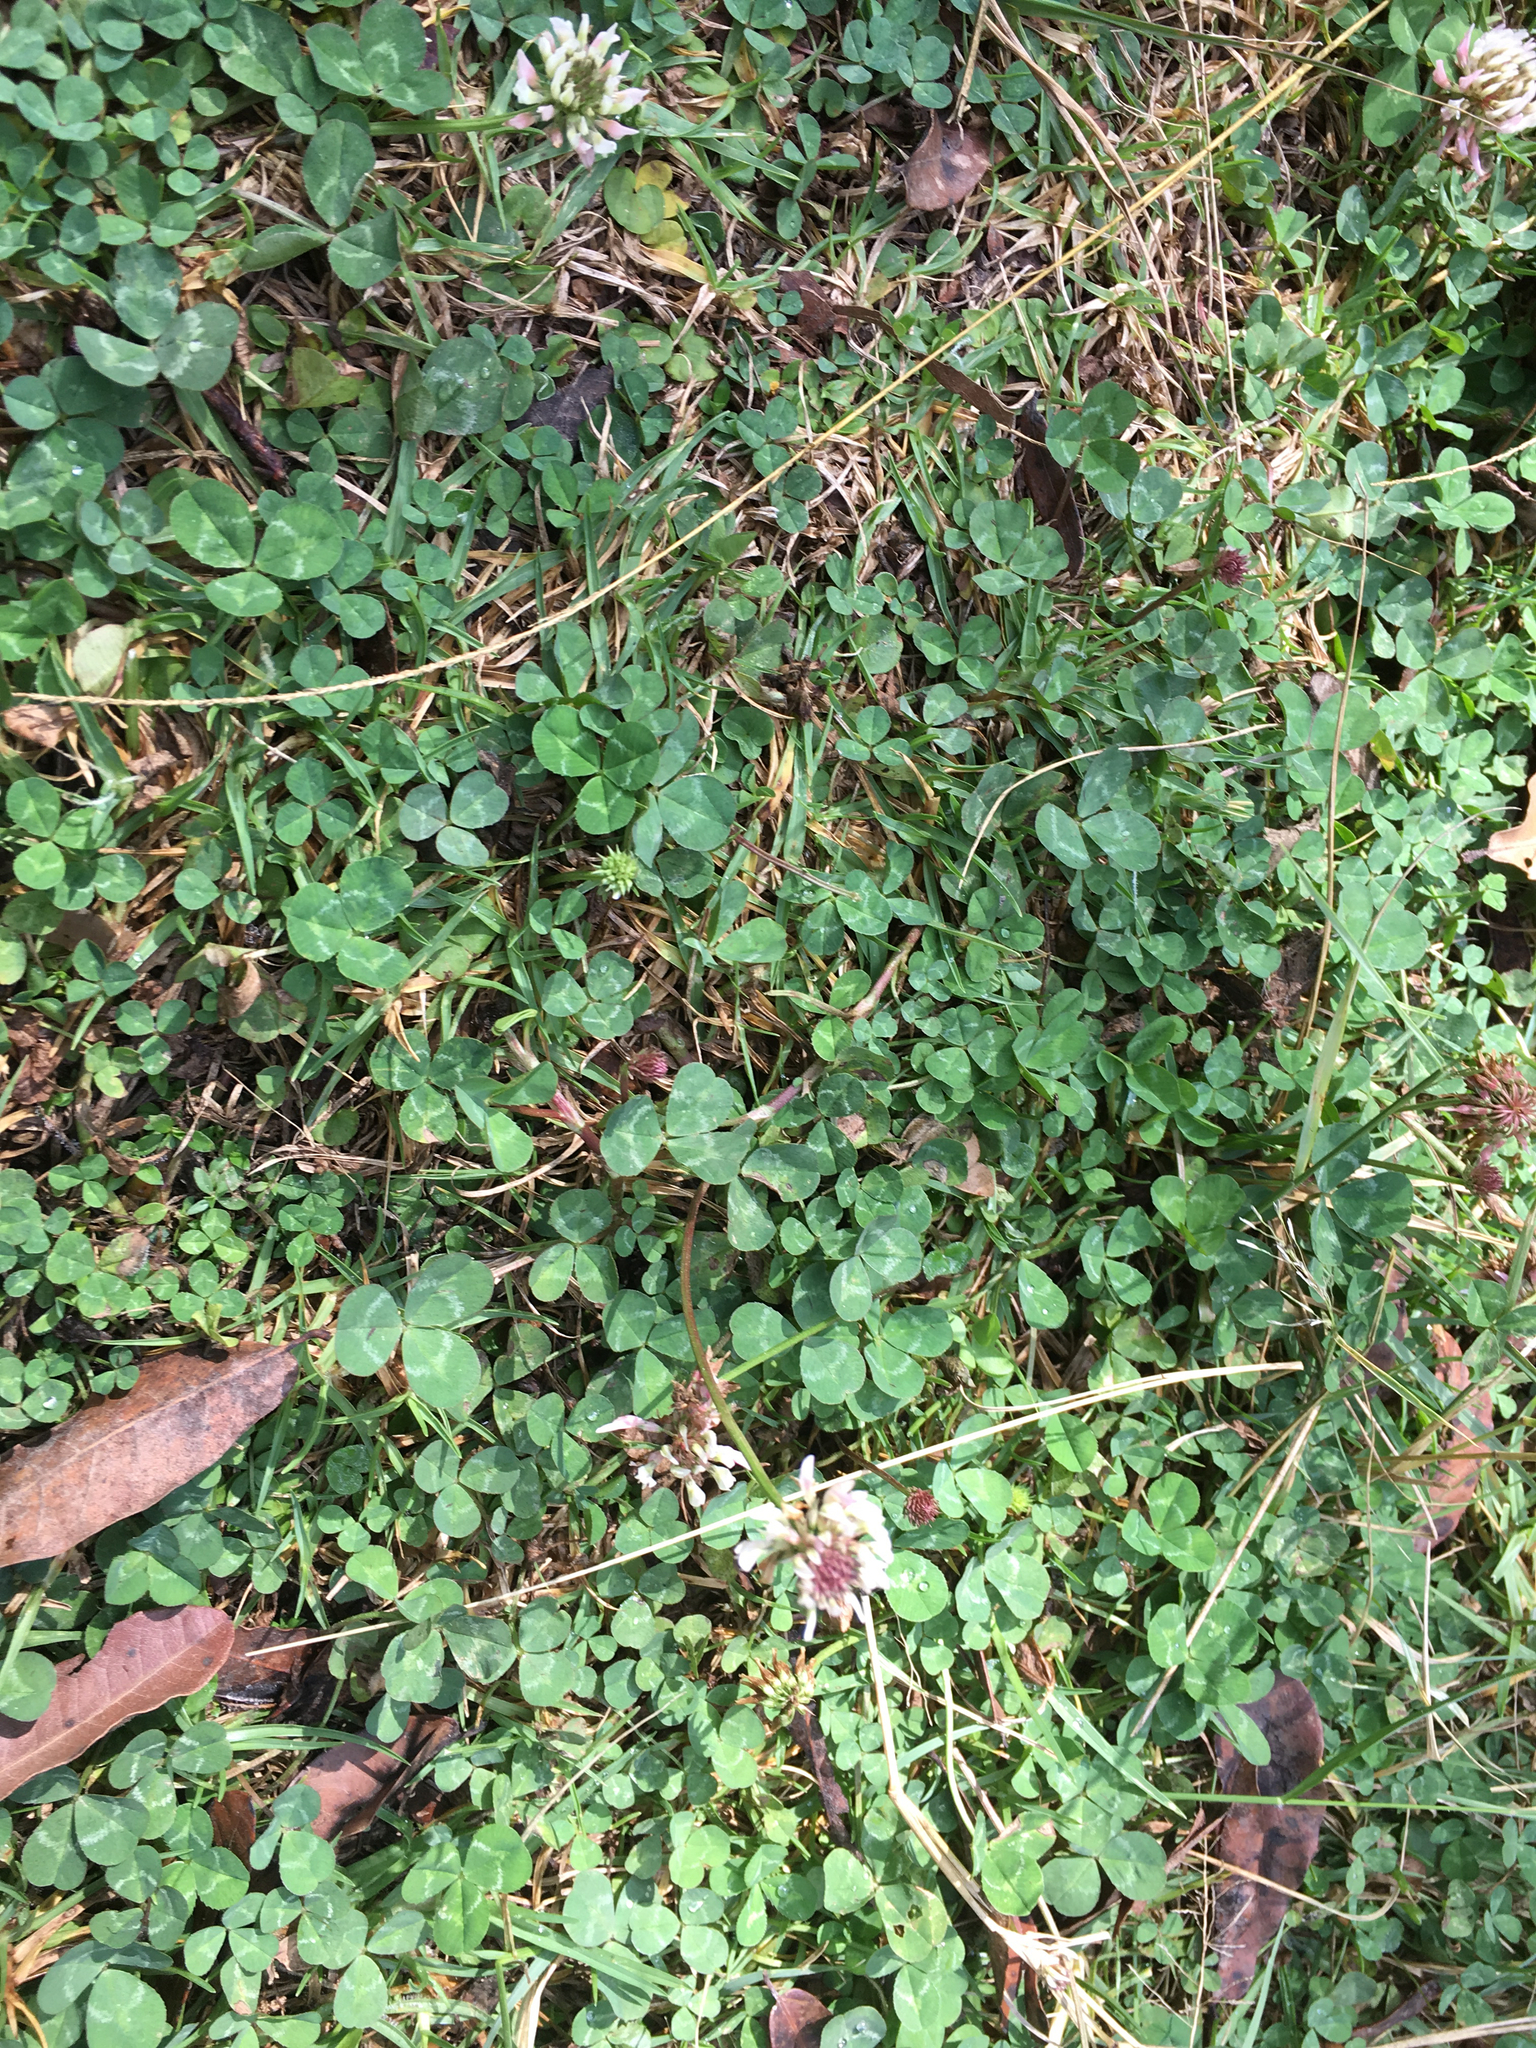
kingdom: Plantae
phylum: Tracheophyta
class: Magnoliopsida
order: Fabales
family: Fabaceae
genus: Trifolium
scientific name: Trifolium repens
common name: White clover
